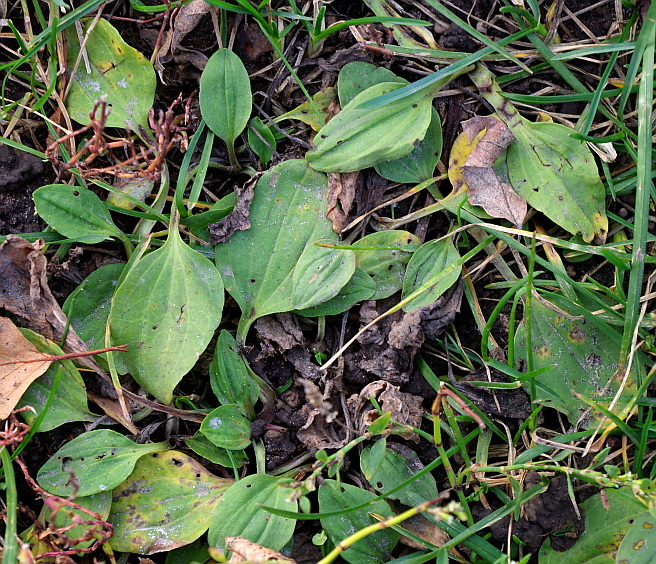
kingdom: Plantae
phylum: Tracheophyta
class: Magnoliopsida
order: Lamiales
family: Plantaginaceae
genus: Plantago
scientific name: Plantago major
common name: Common plantain
